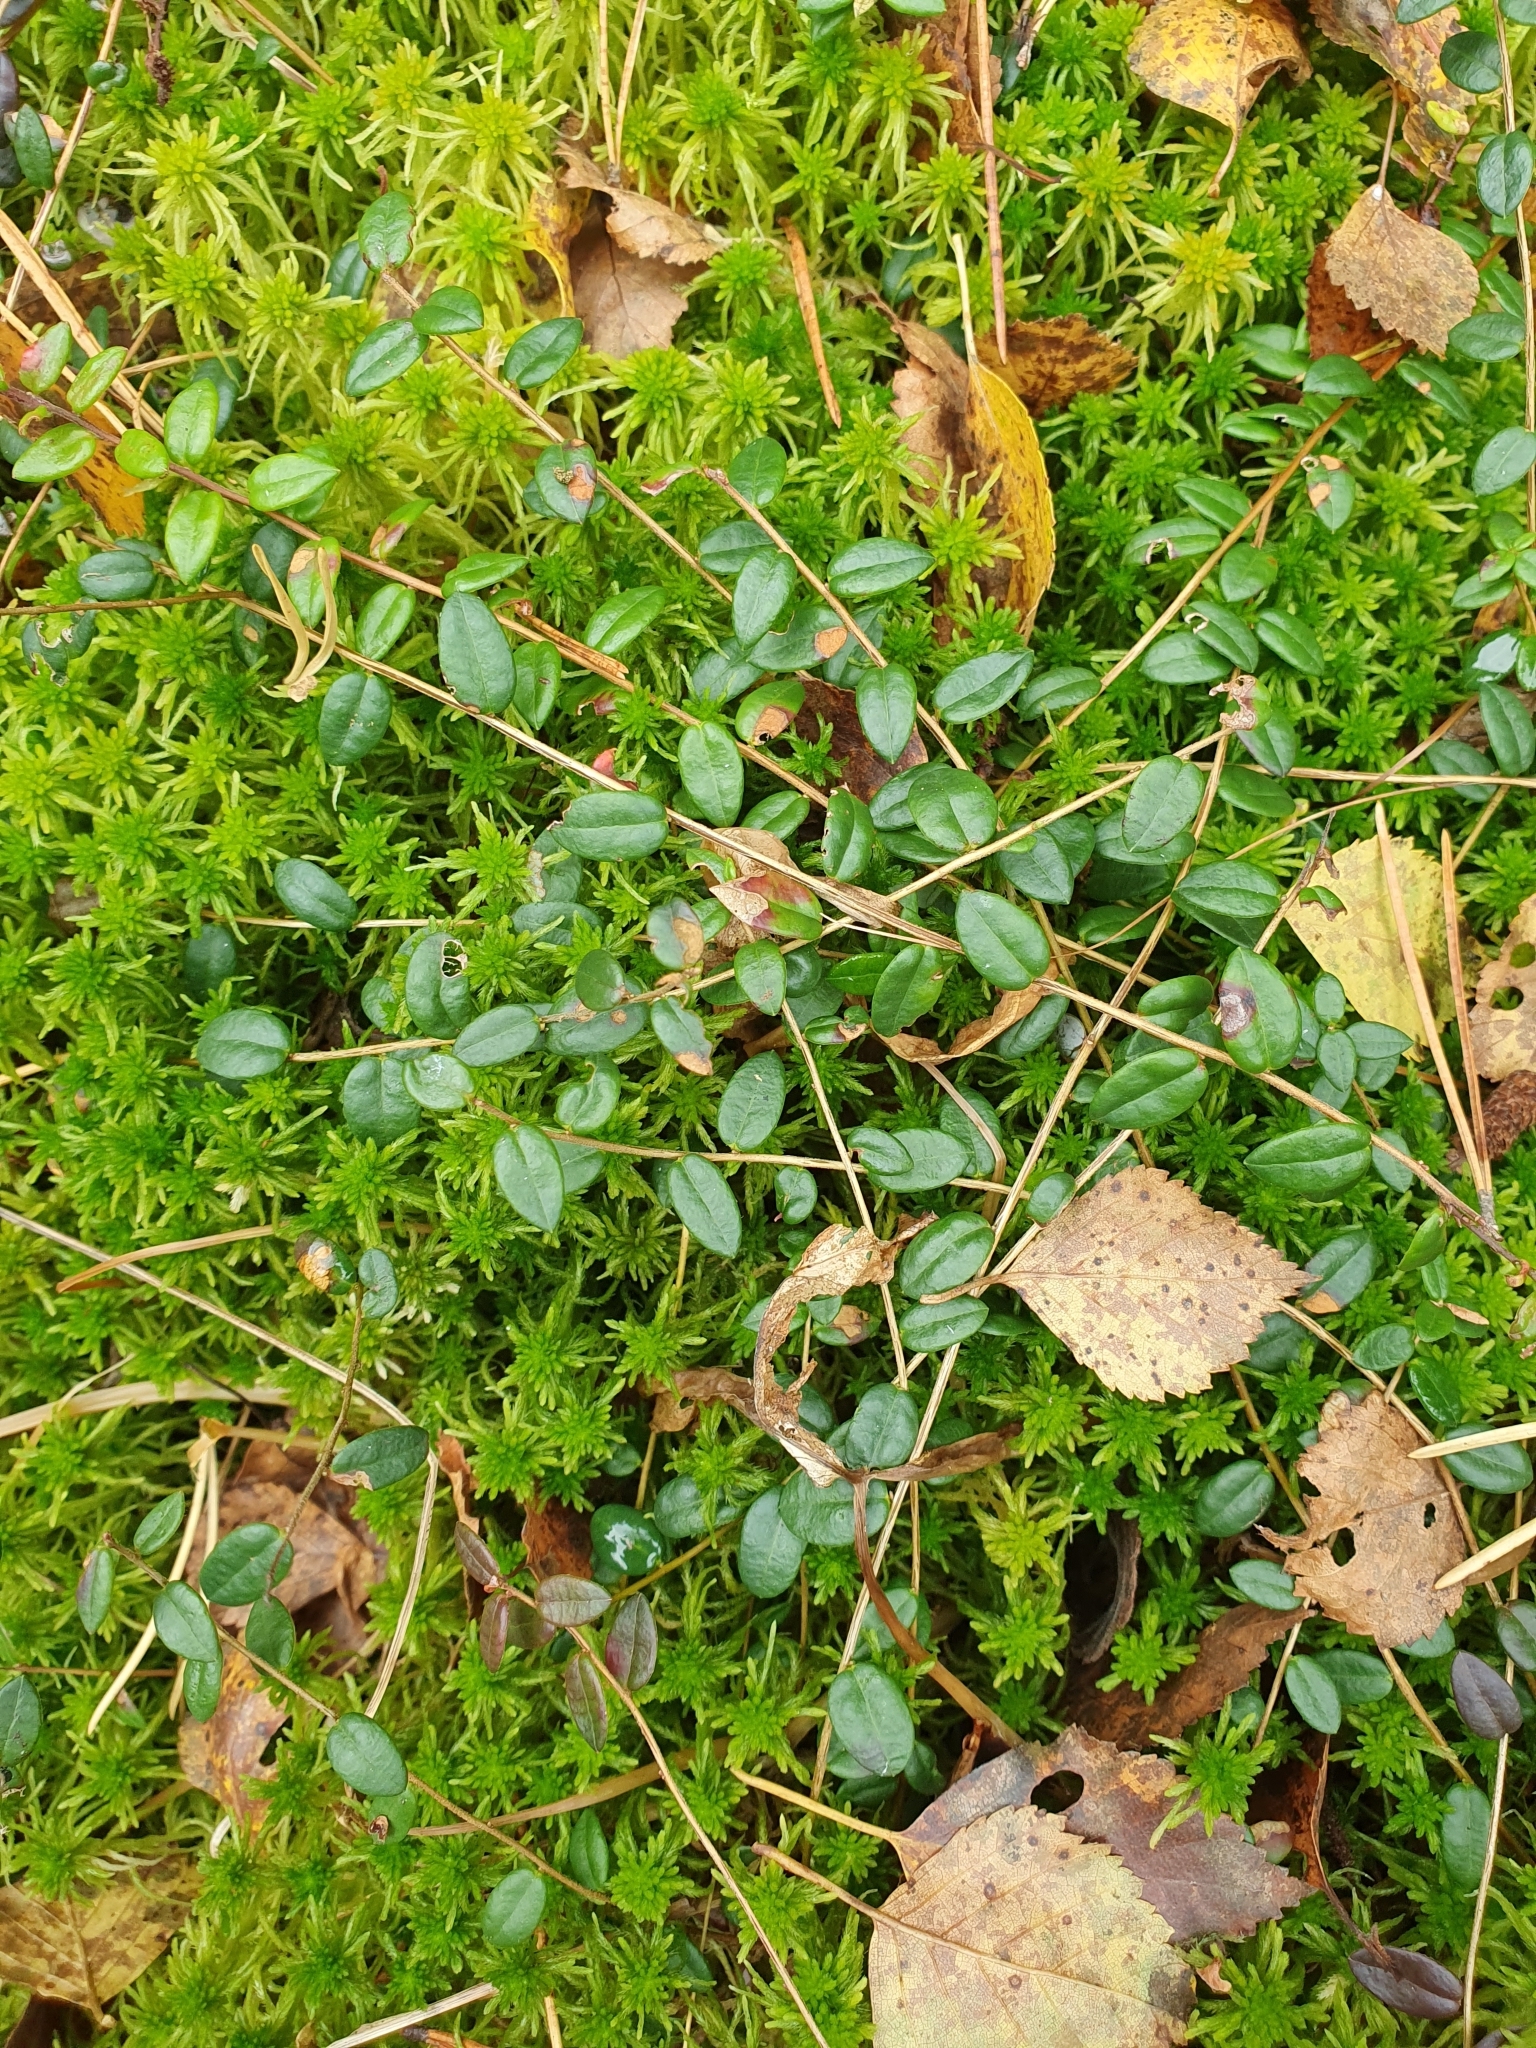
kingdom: Plantae
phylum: Tracheophyta
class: Magnoliopsida
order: Ericales
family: Ericaceae
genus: Vaccinium
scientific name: Vaccinium oxycoccos
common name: Cranberry
